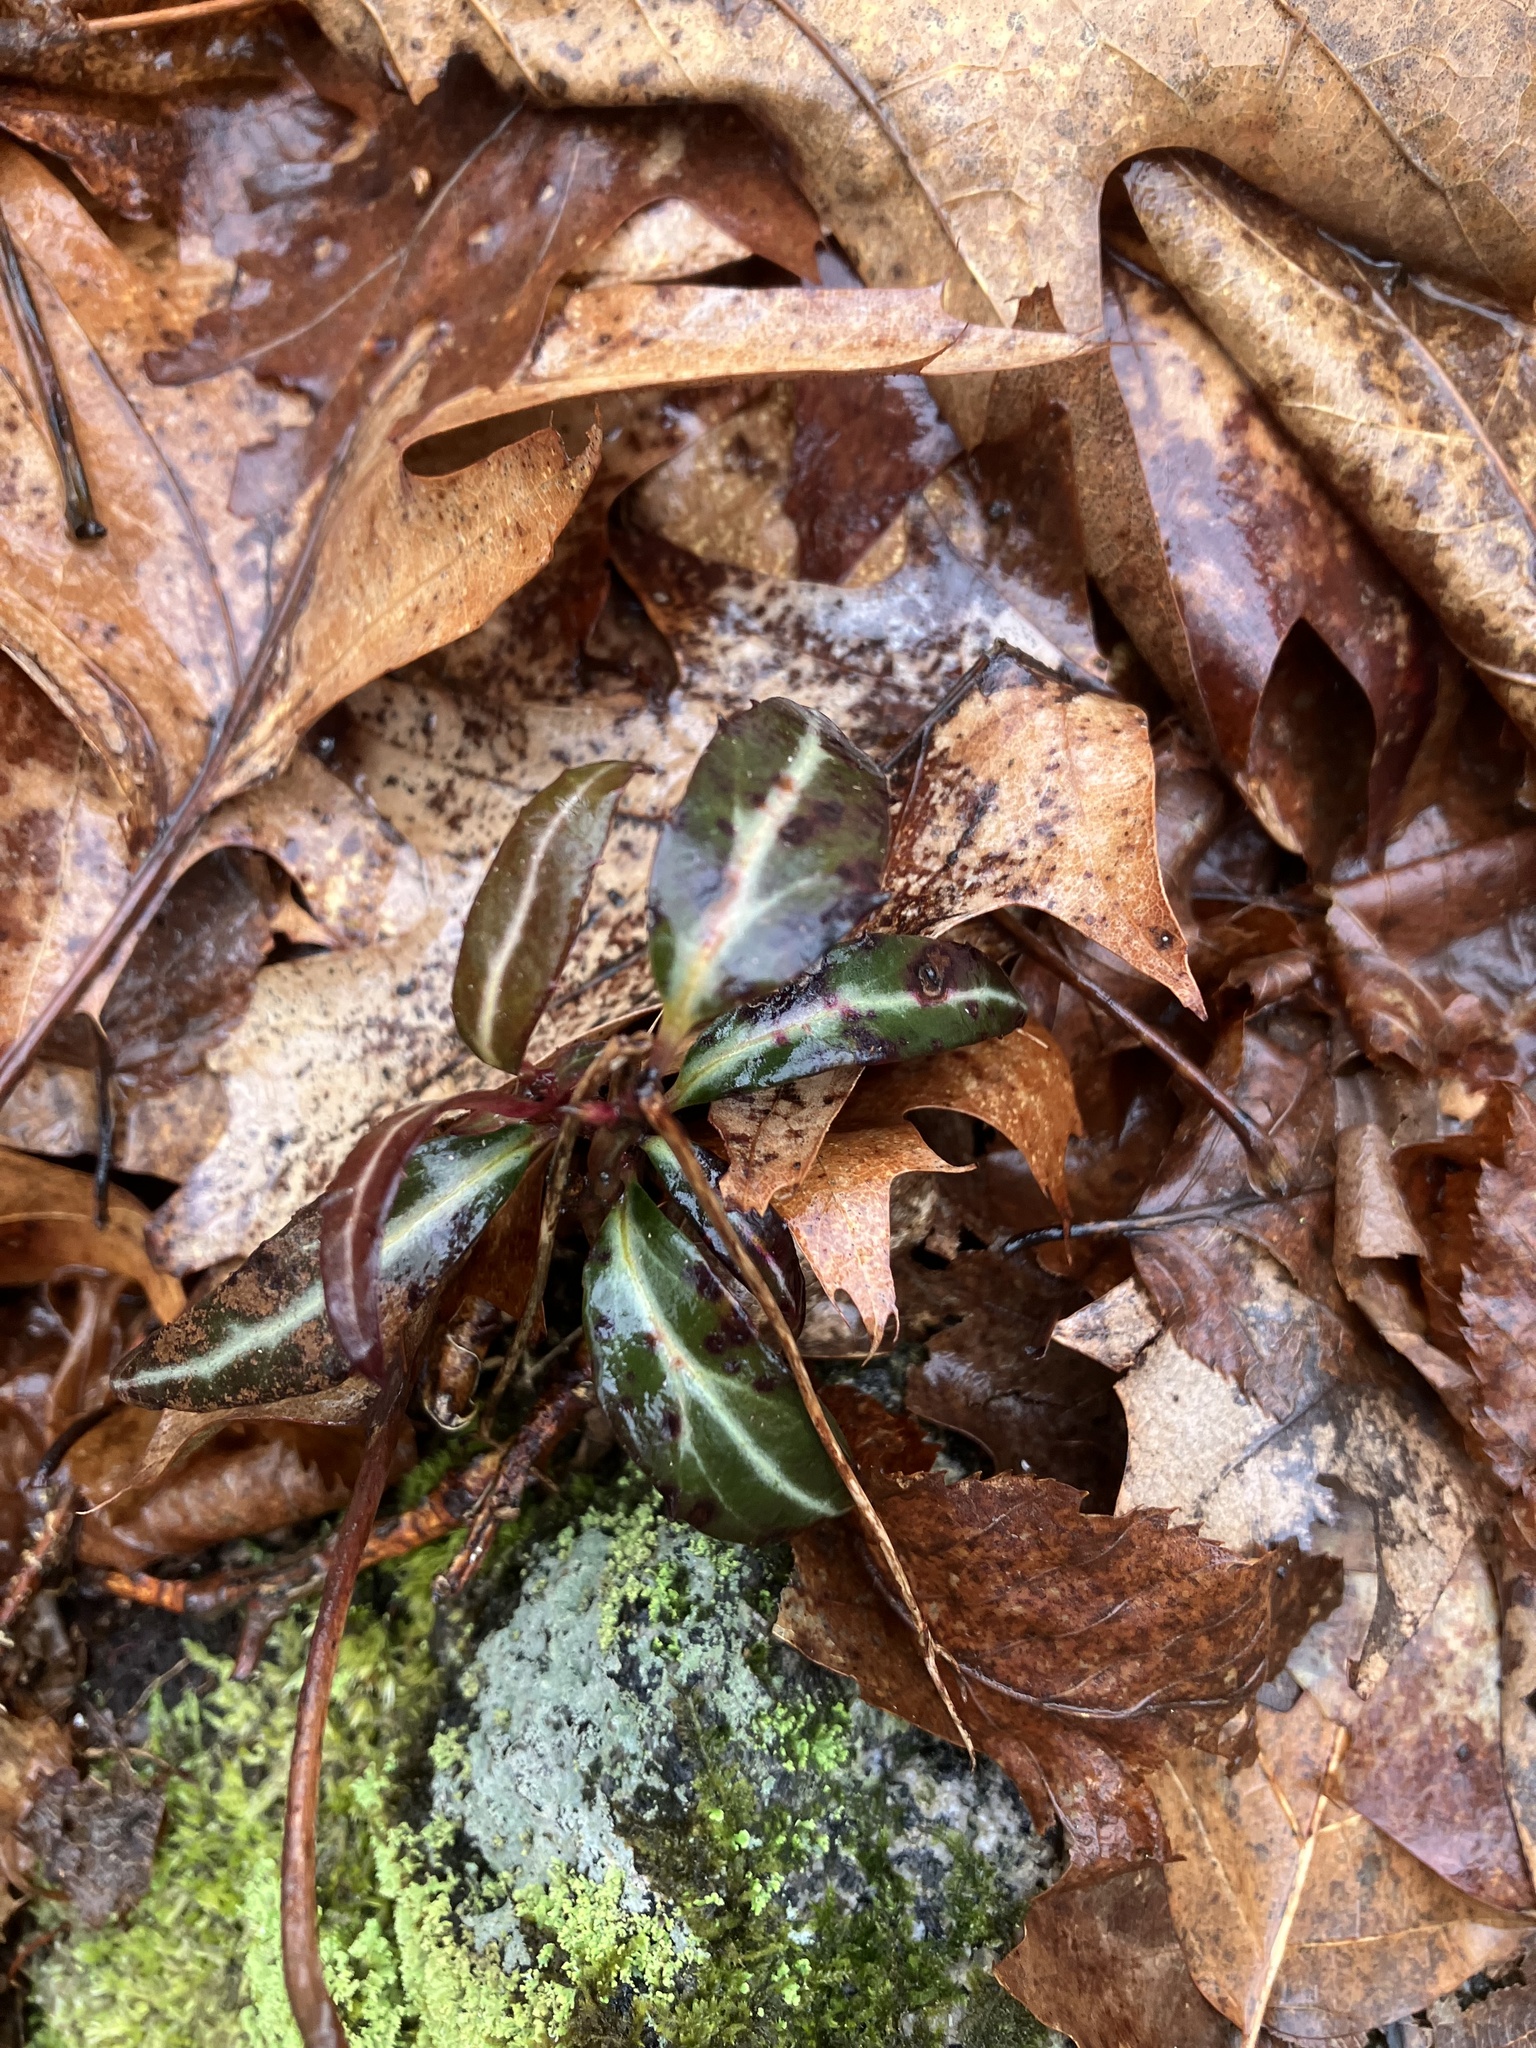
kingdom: Plantae
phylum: Tracheophyta
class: Magnoliopsida
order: Ericales
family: Ericaceae
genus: Chimaphila
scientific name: Chimaphila maculata
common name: Spotted pipsissewa
